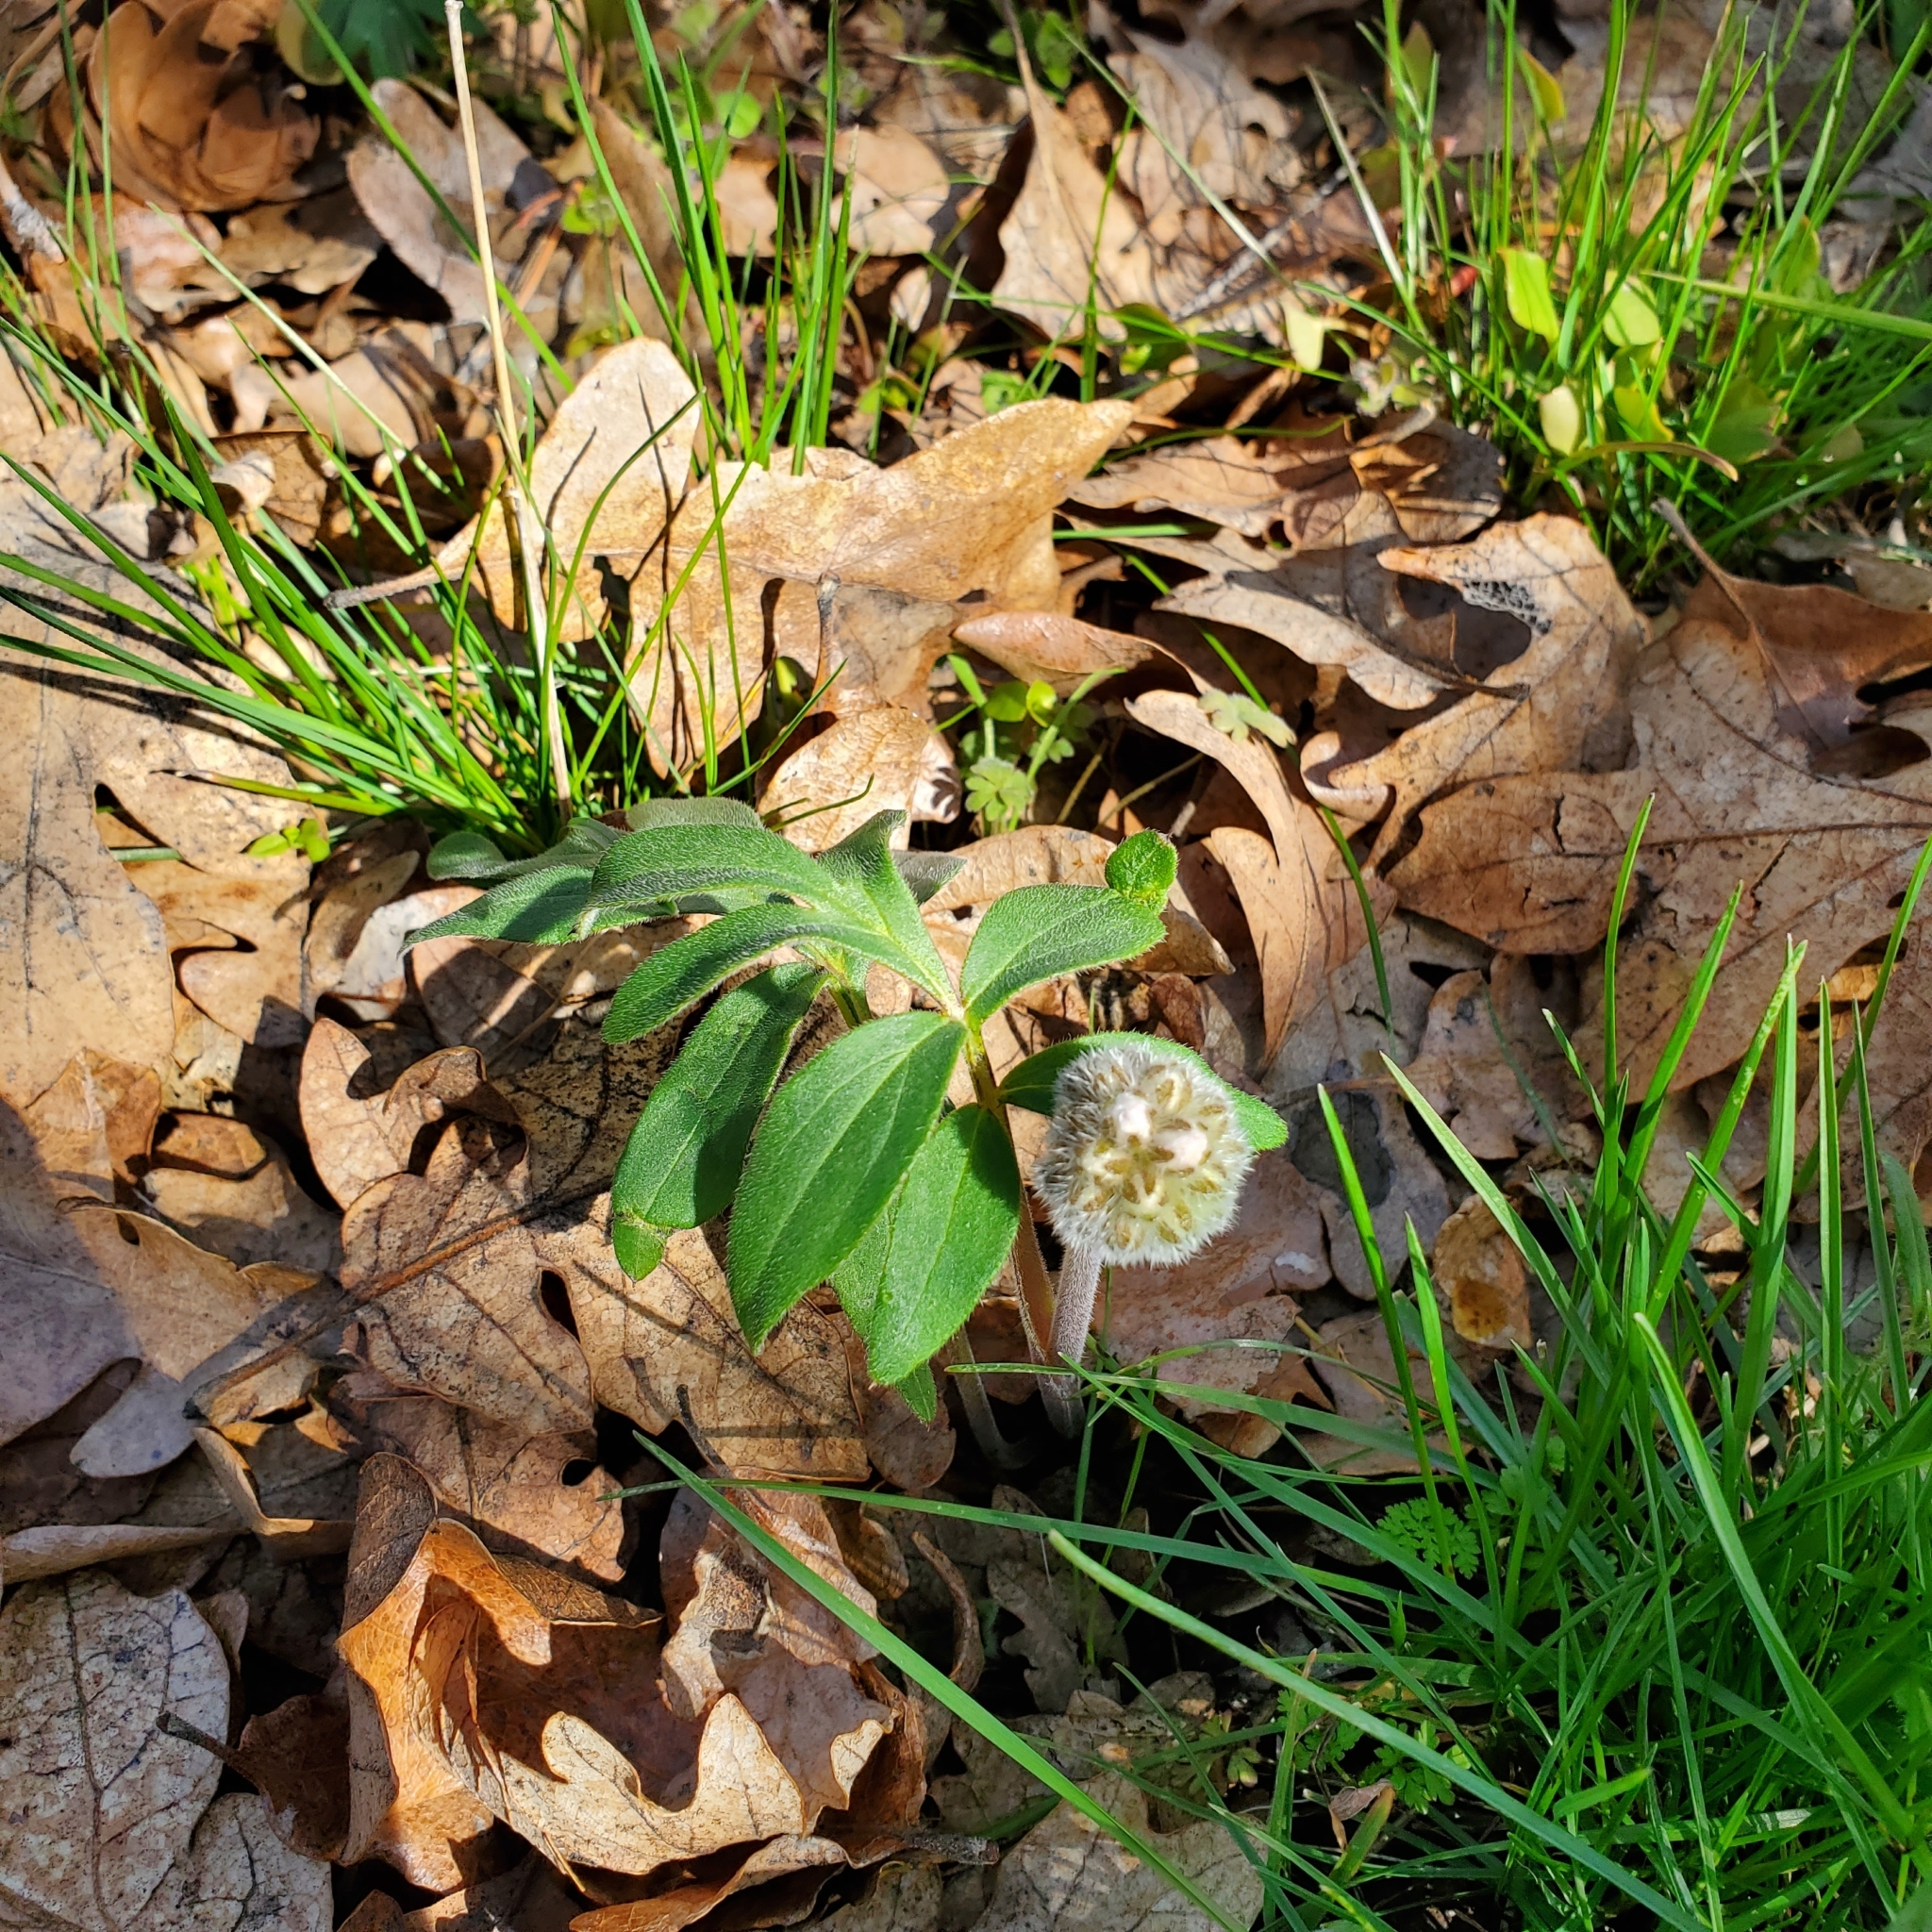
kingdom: Plantae
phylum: Tracheophyta
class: Magnoliopsida
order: Boraginales
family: Hydrophyllaceae
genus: Hydrophyllum
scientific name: Hydrophyllum capitatum
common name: Woollen-breeches
